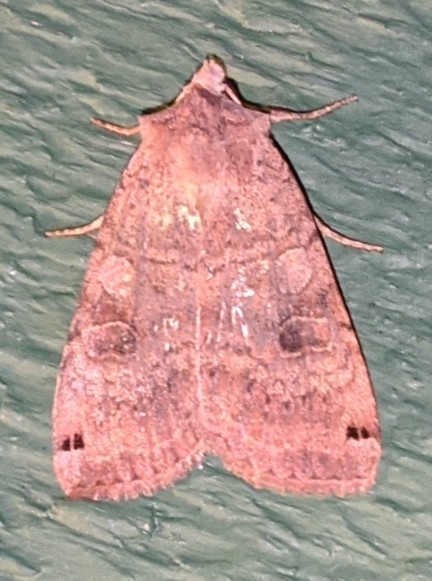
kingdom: Animalia
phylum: Arthropoda
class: Insecta
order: Lepidoptera
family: Noctuidae
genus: Xestia
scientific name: Xestia smithii
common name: Smith's dart
